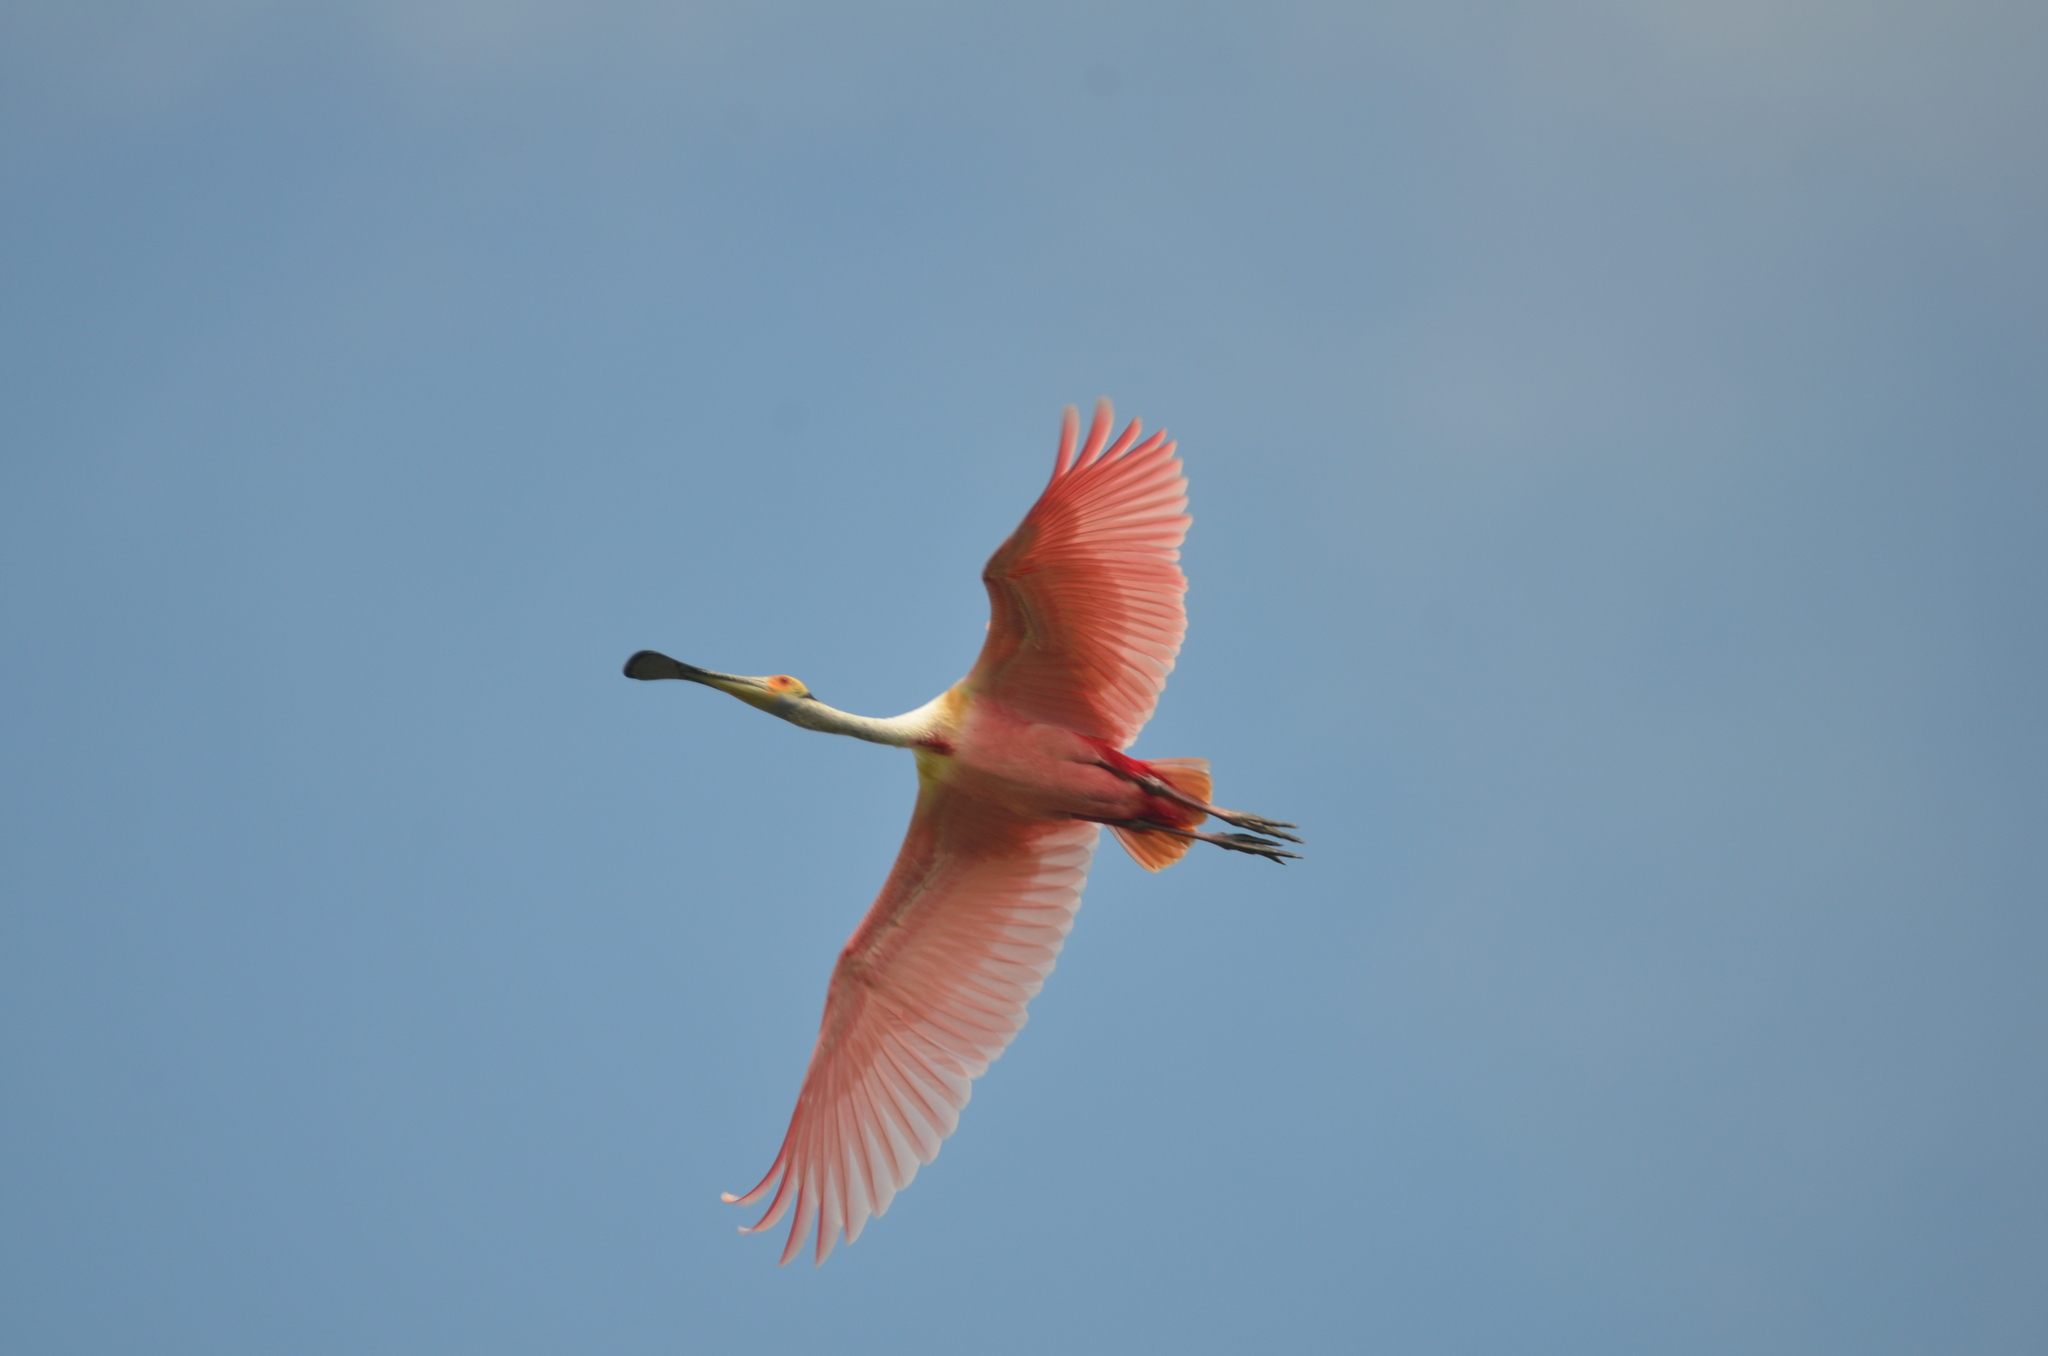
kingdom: Animalia
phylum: Chordata
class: Aves
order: Pelecaniformes
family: Threskiornithidae
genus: Platalea
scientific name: Platalea ajaja
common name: Roseate spoonbill
